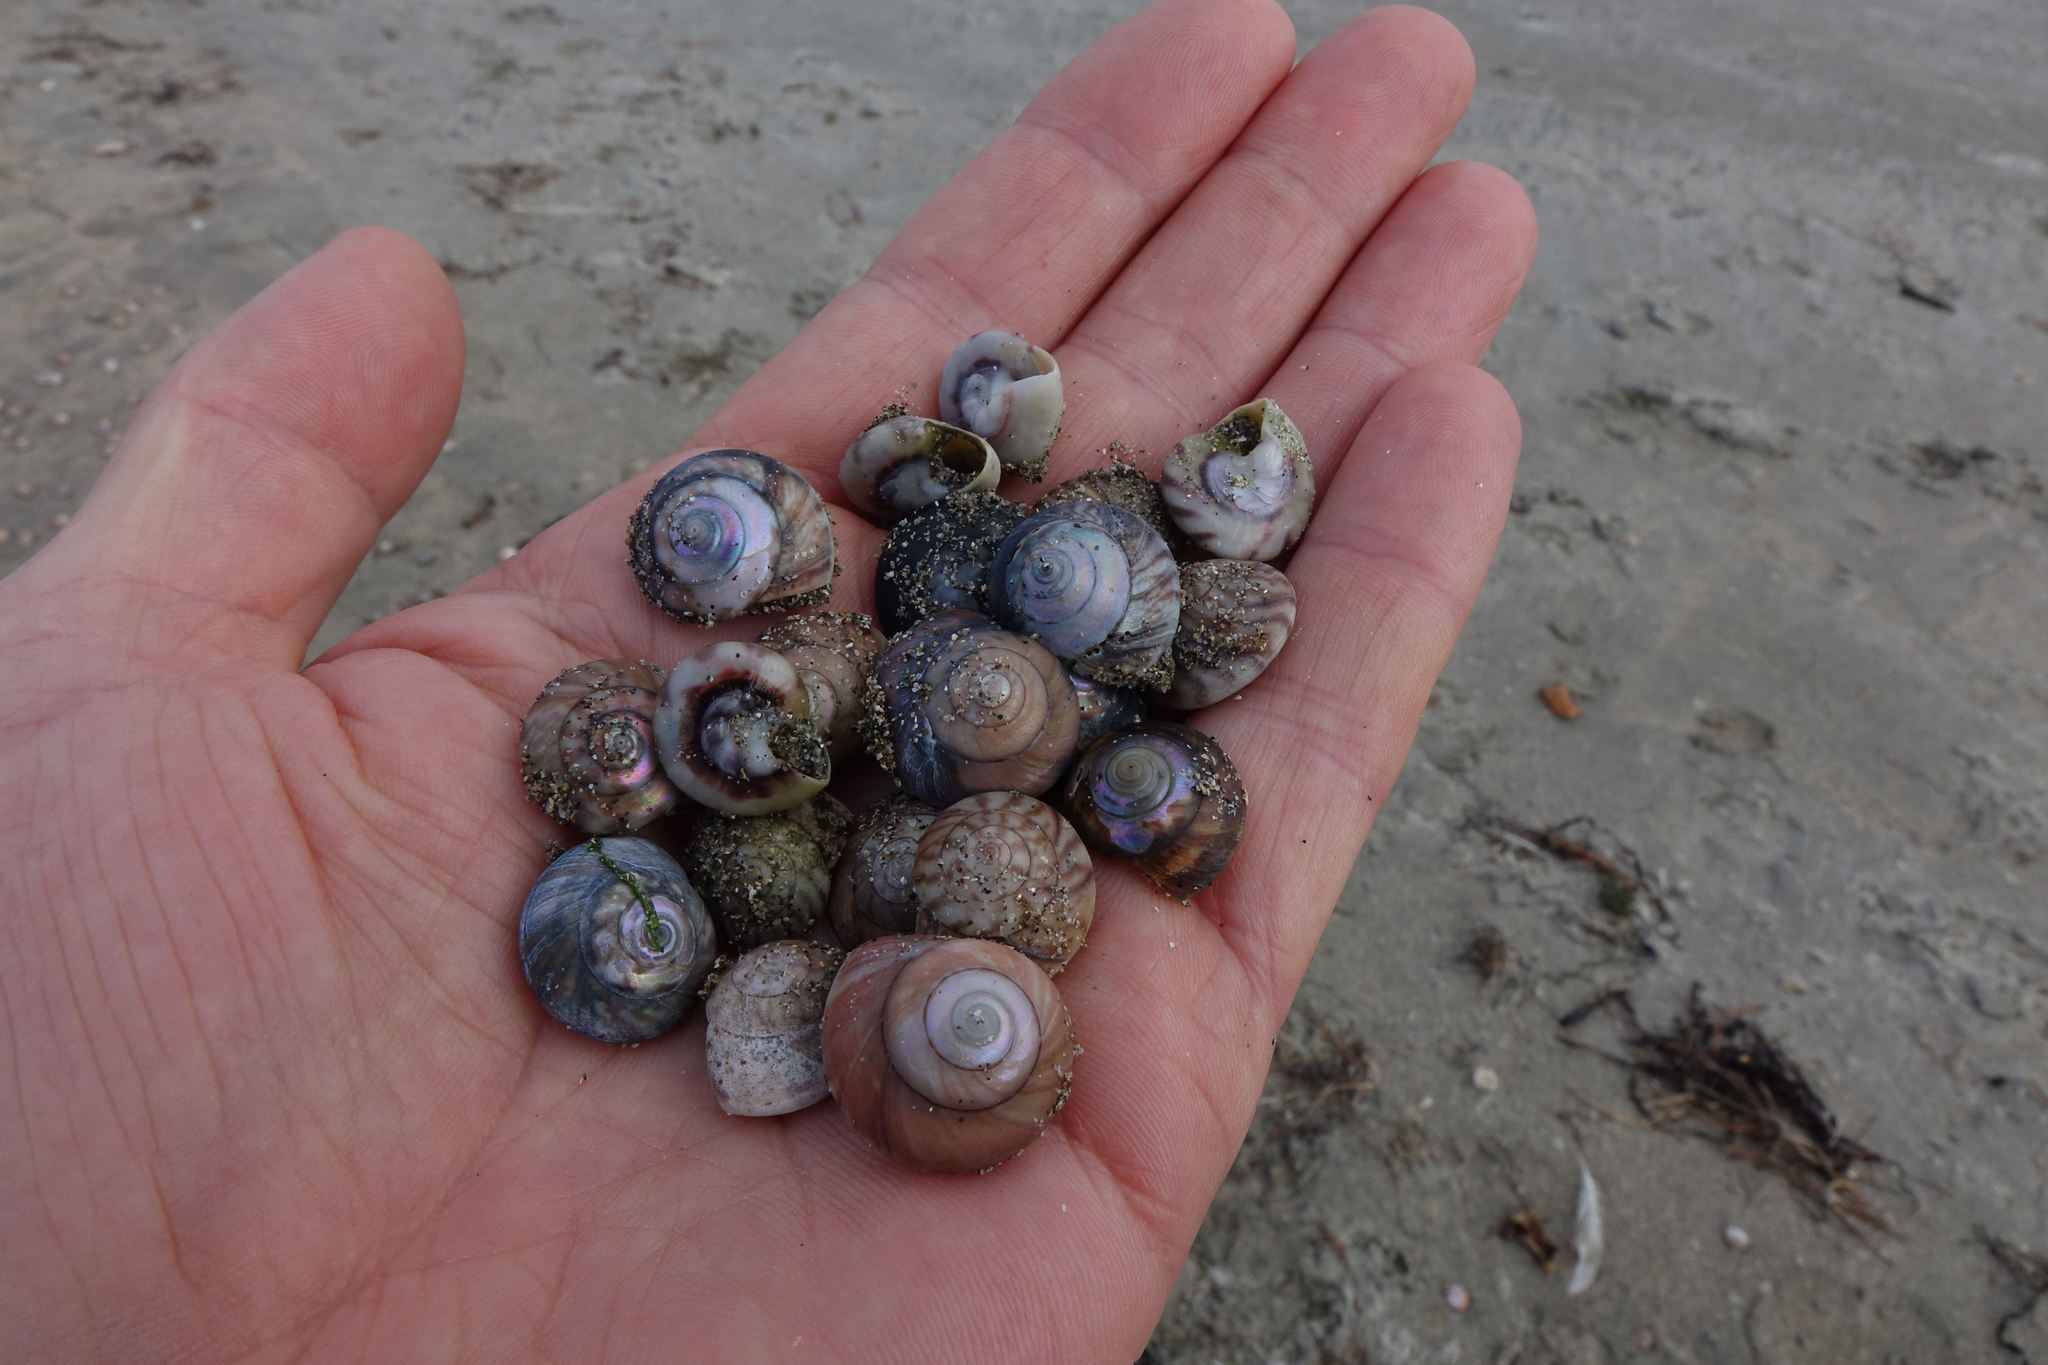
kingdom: Animalia
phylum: Mollusca
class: Gastropoda
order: Trochida
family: Trochidae
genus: Zethalia
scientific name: Zethalia zelandica
